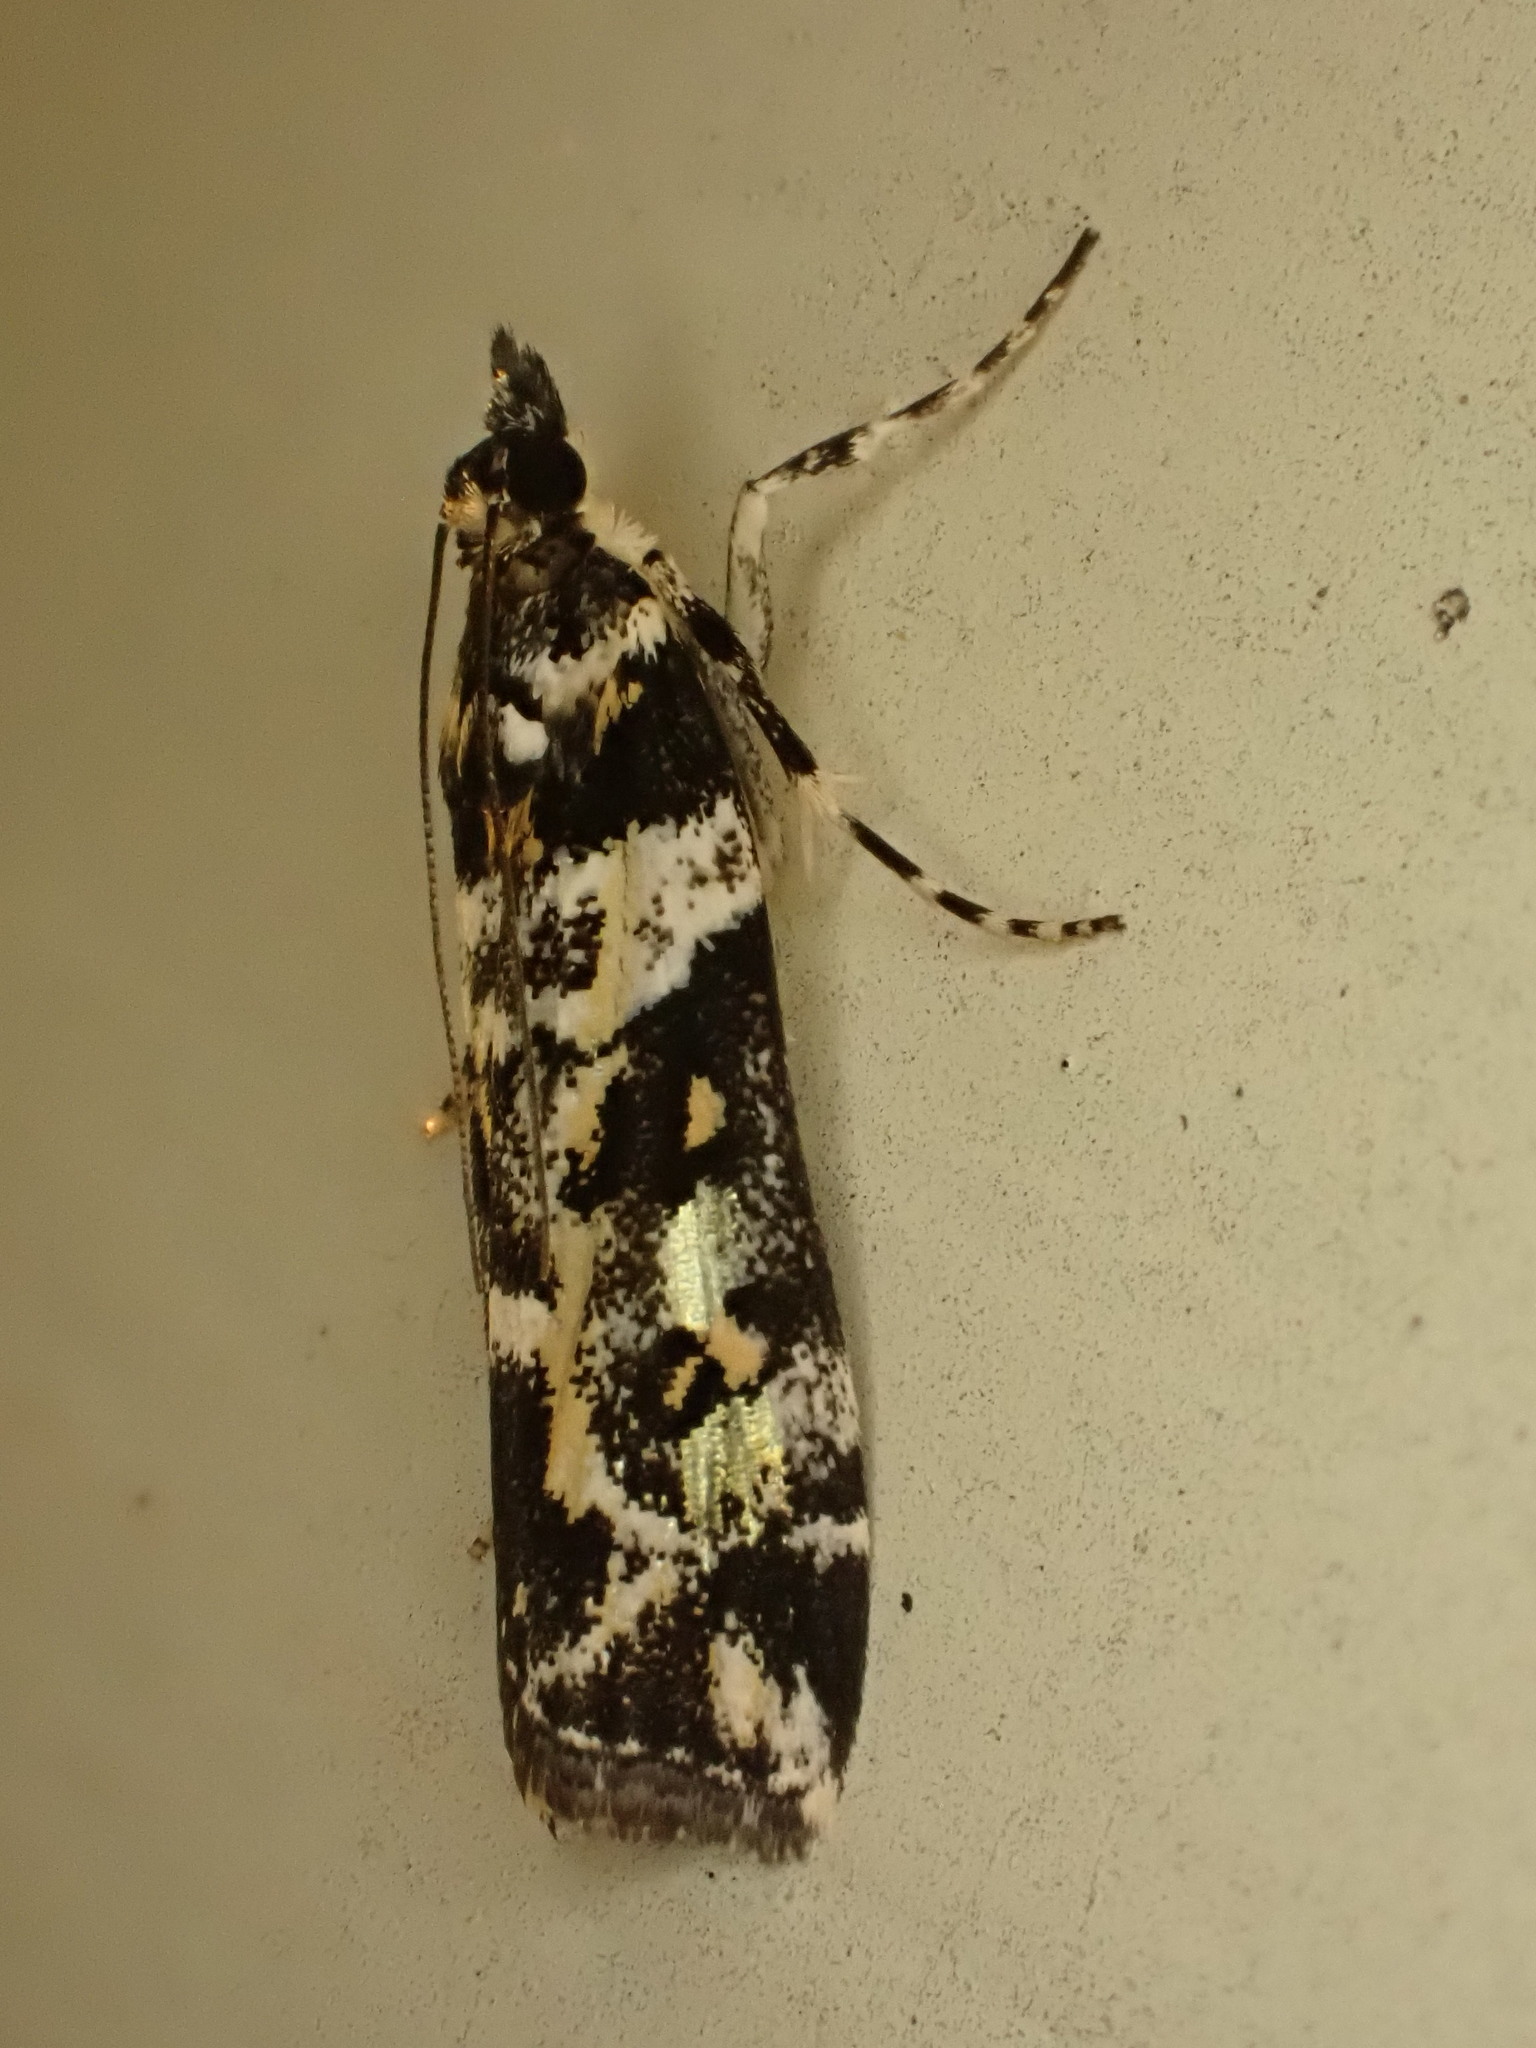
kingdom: Animalia
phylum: Arthropoda
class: Insecta
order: Lepidoptera
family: Crambidae
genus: Eudonia
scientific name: Eudonia diphtheralis
